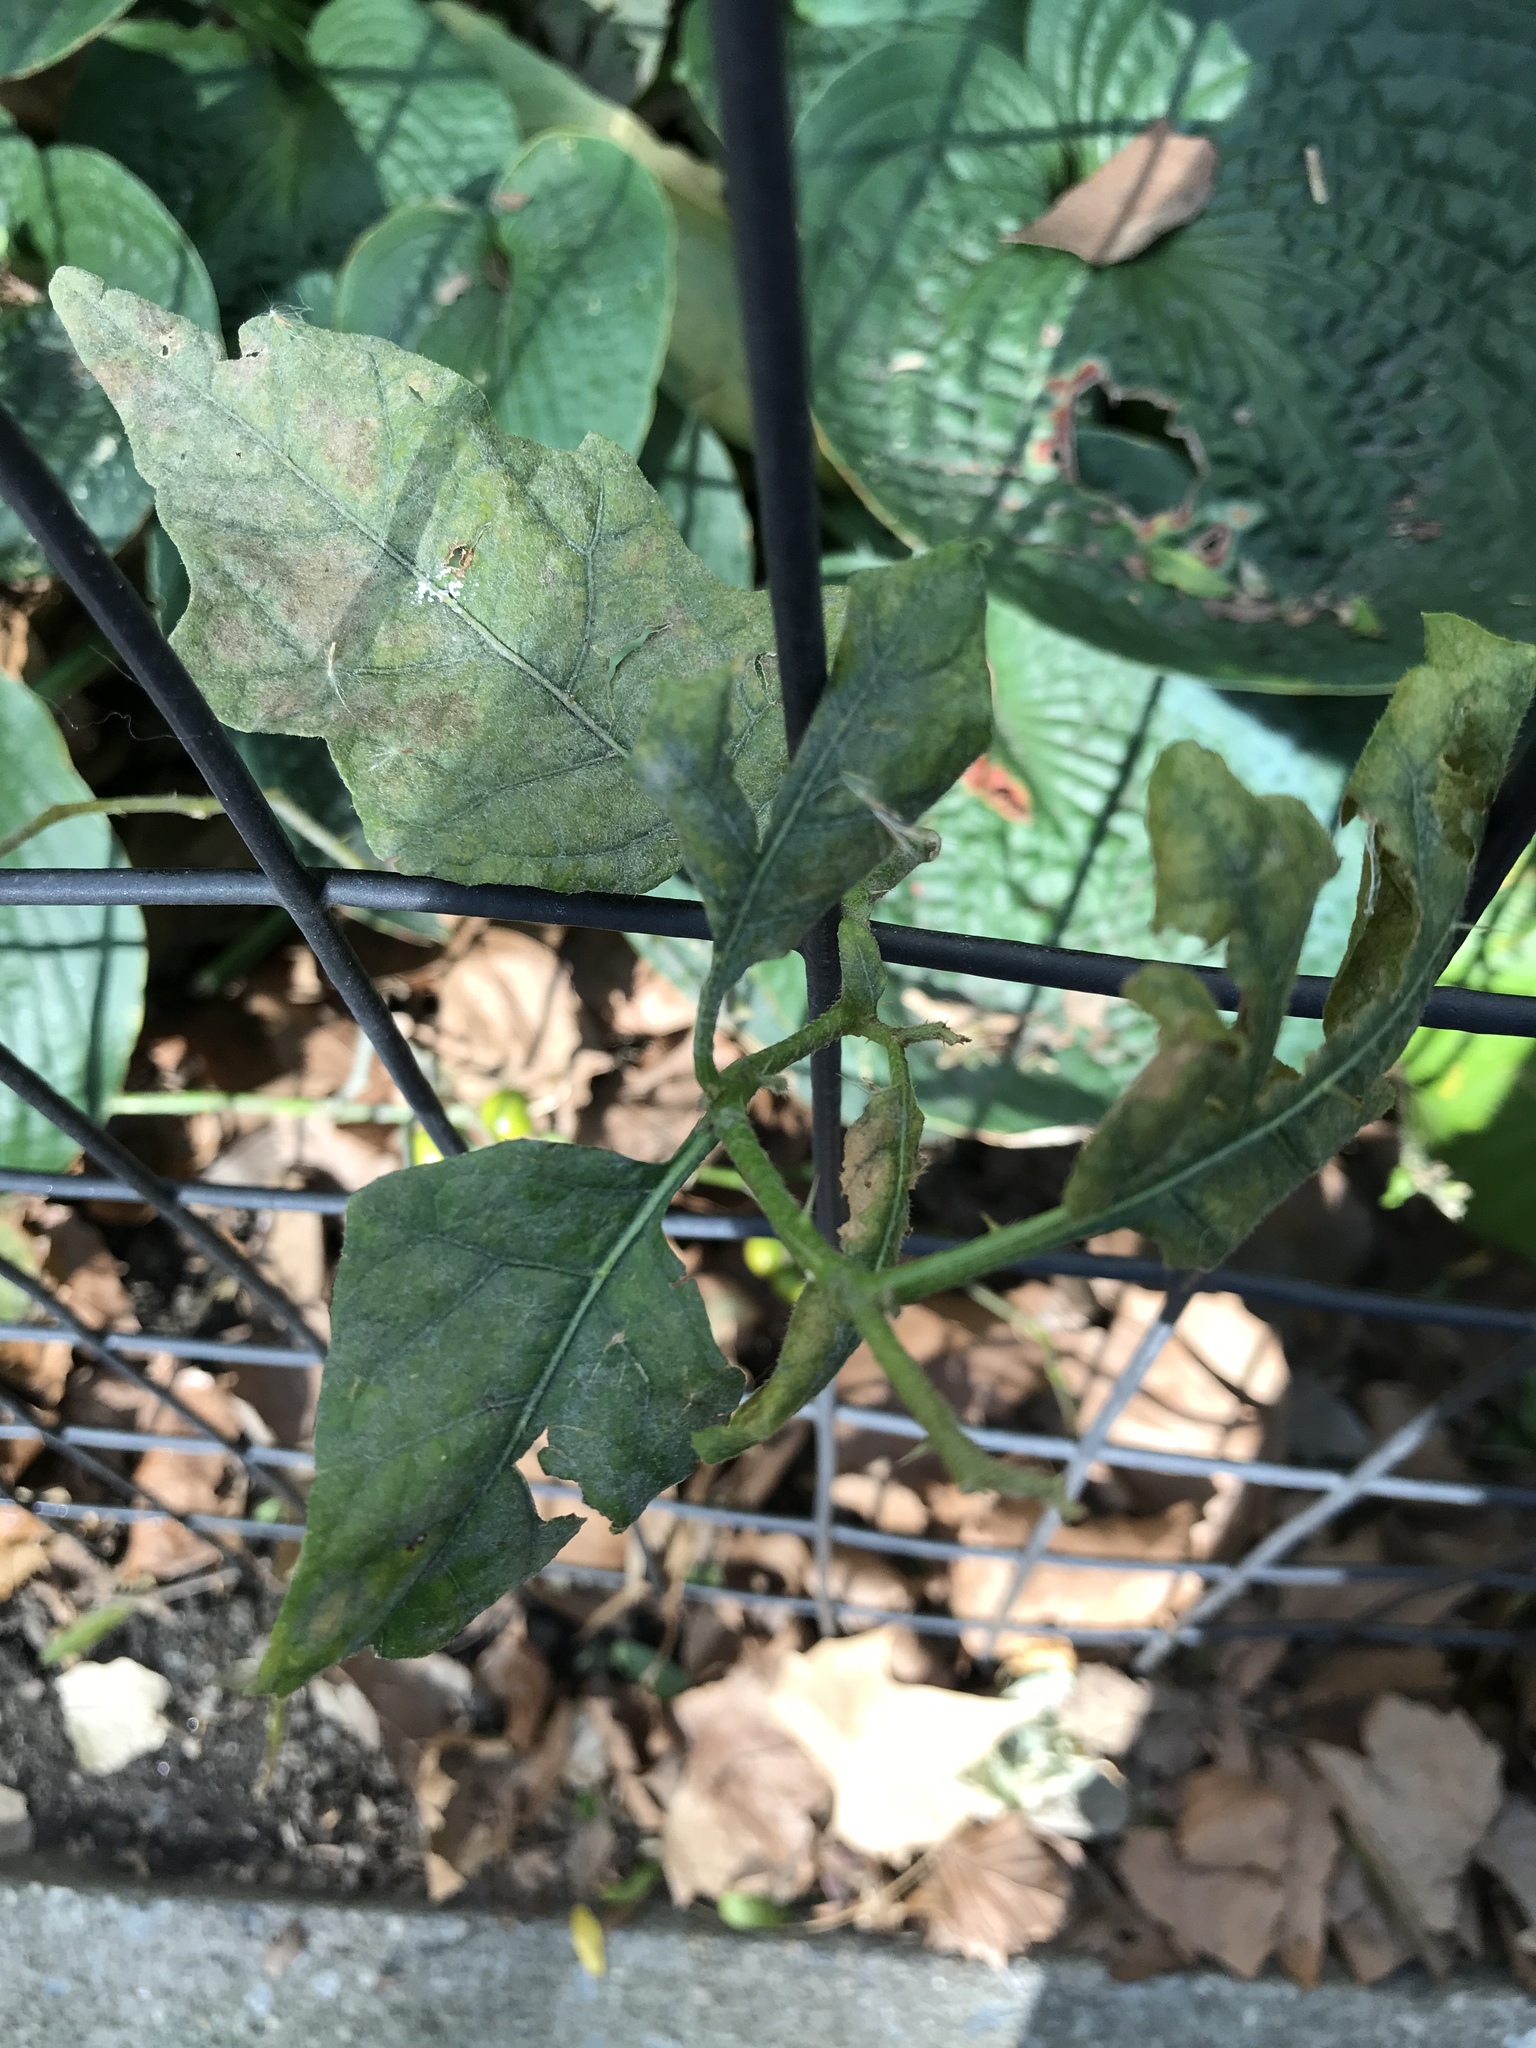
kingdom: Plantae
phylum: Tracheophyta
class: Magnoliopsida
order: Solanales
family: Solanaceae
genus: Solanum
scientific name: Solanum carolinense
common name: Horse-nettle
